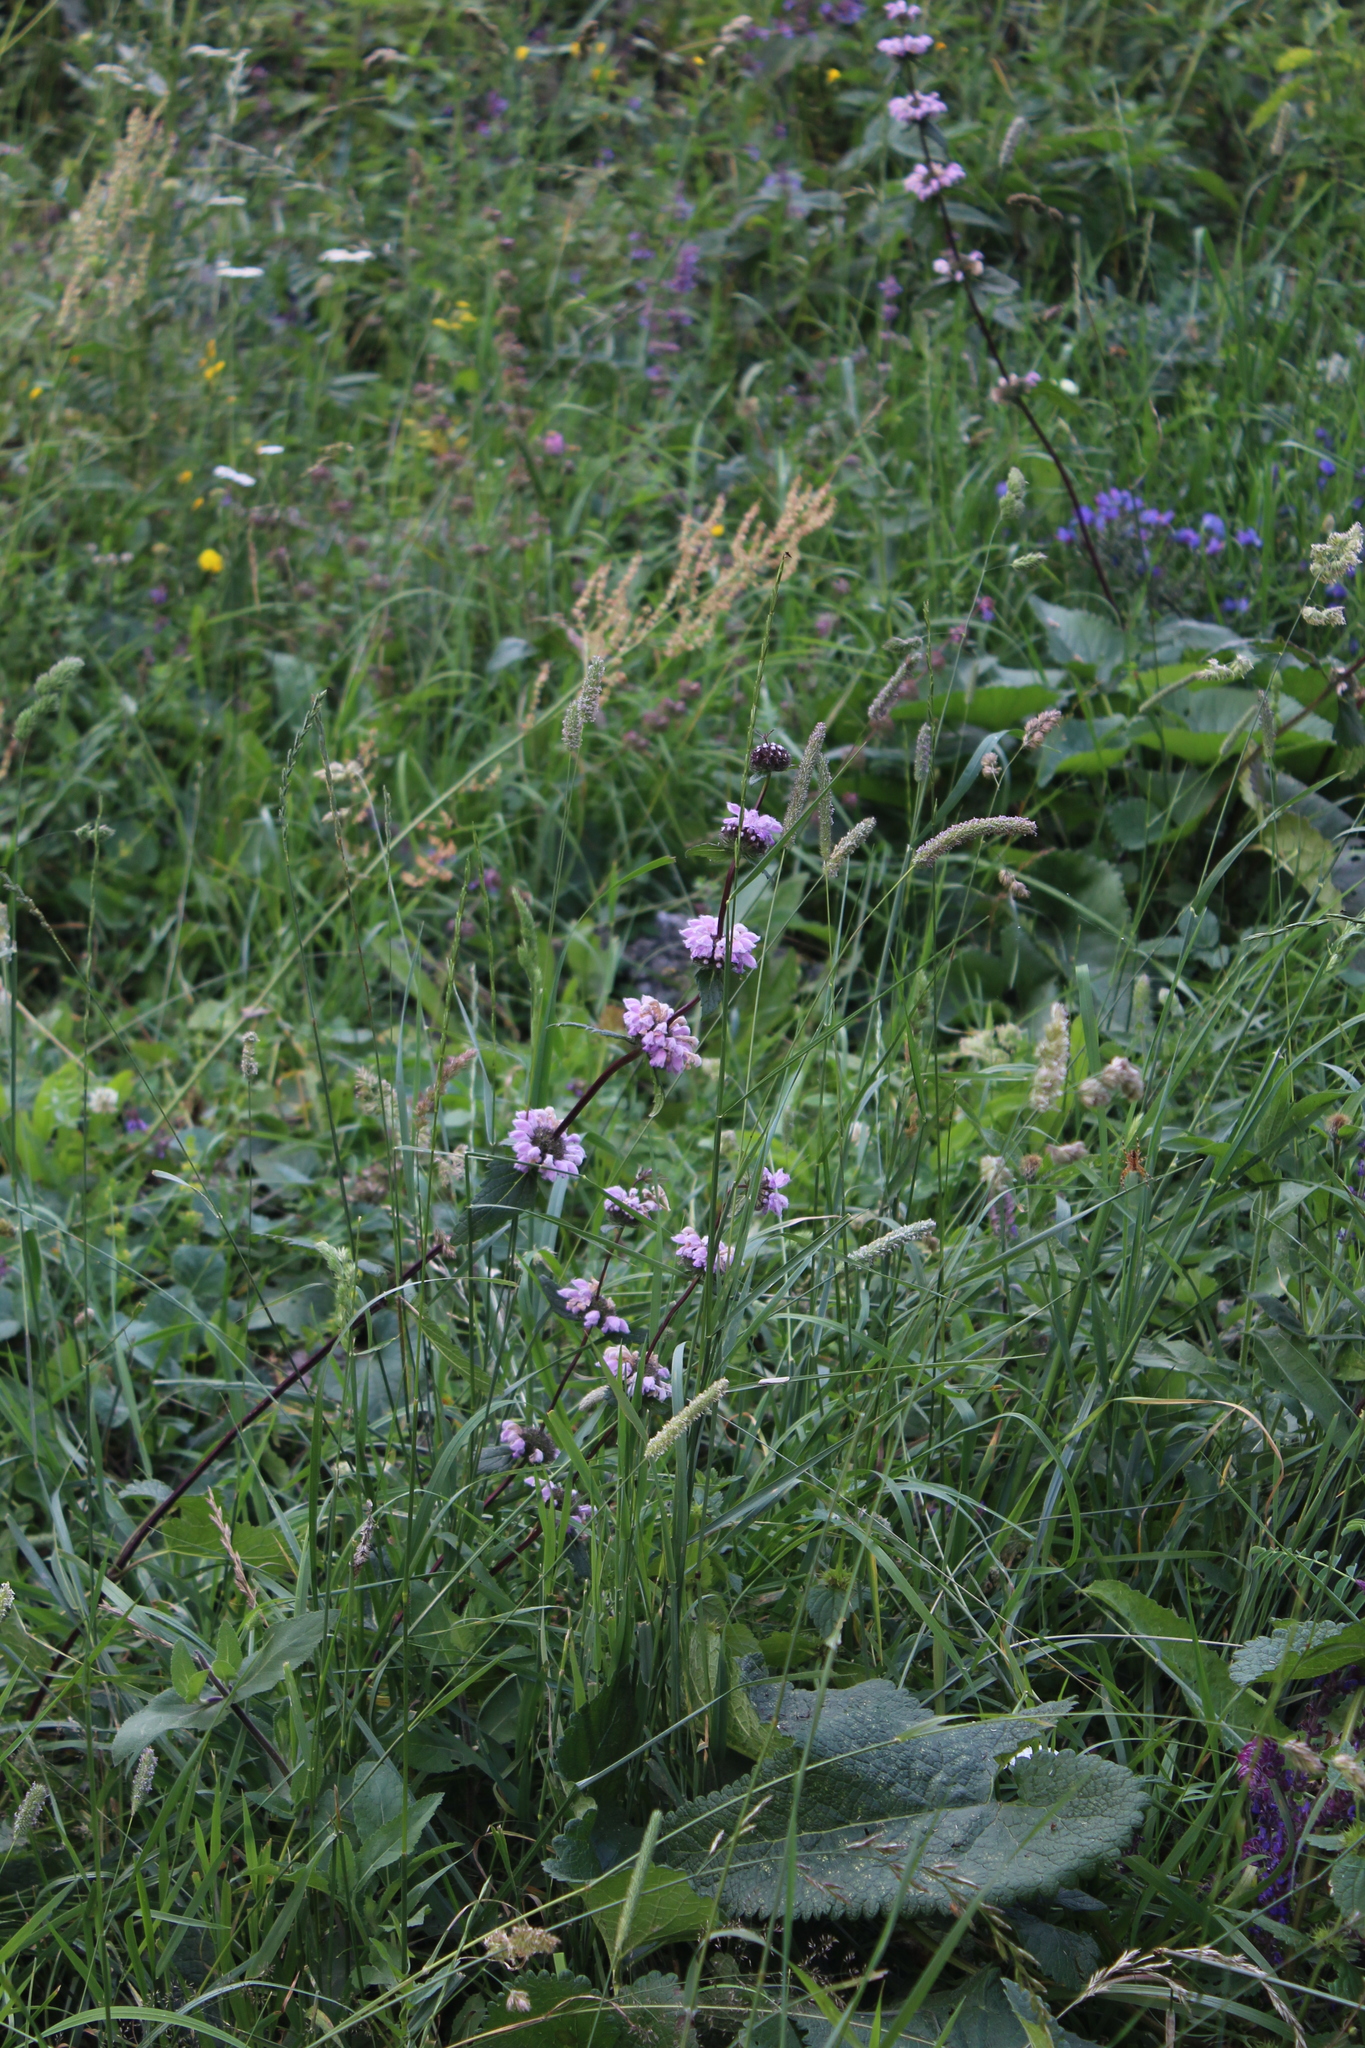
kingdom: Plantae
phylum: Tracheophyta
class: Magnoliopsida
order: Lamiales
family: Lamiaceae
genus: Phlomoides
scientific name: Phlomoides tuberosa
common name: Tuberous jerusalem sage
